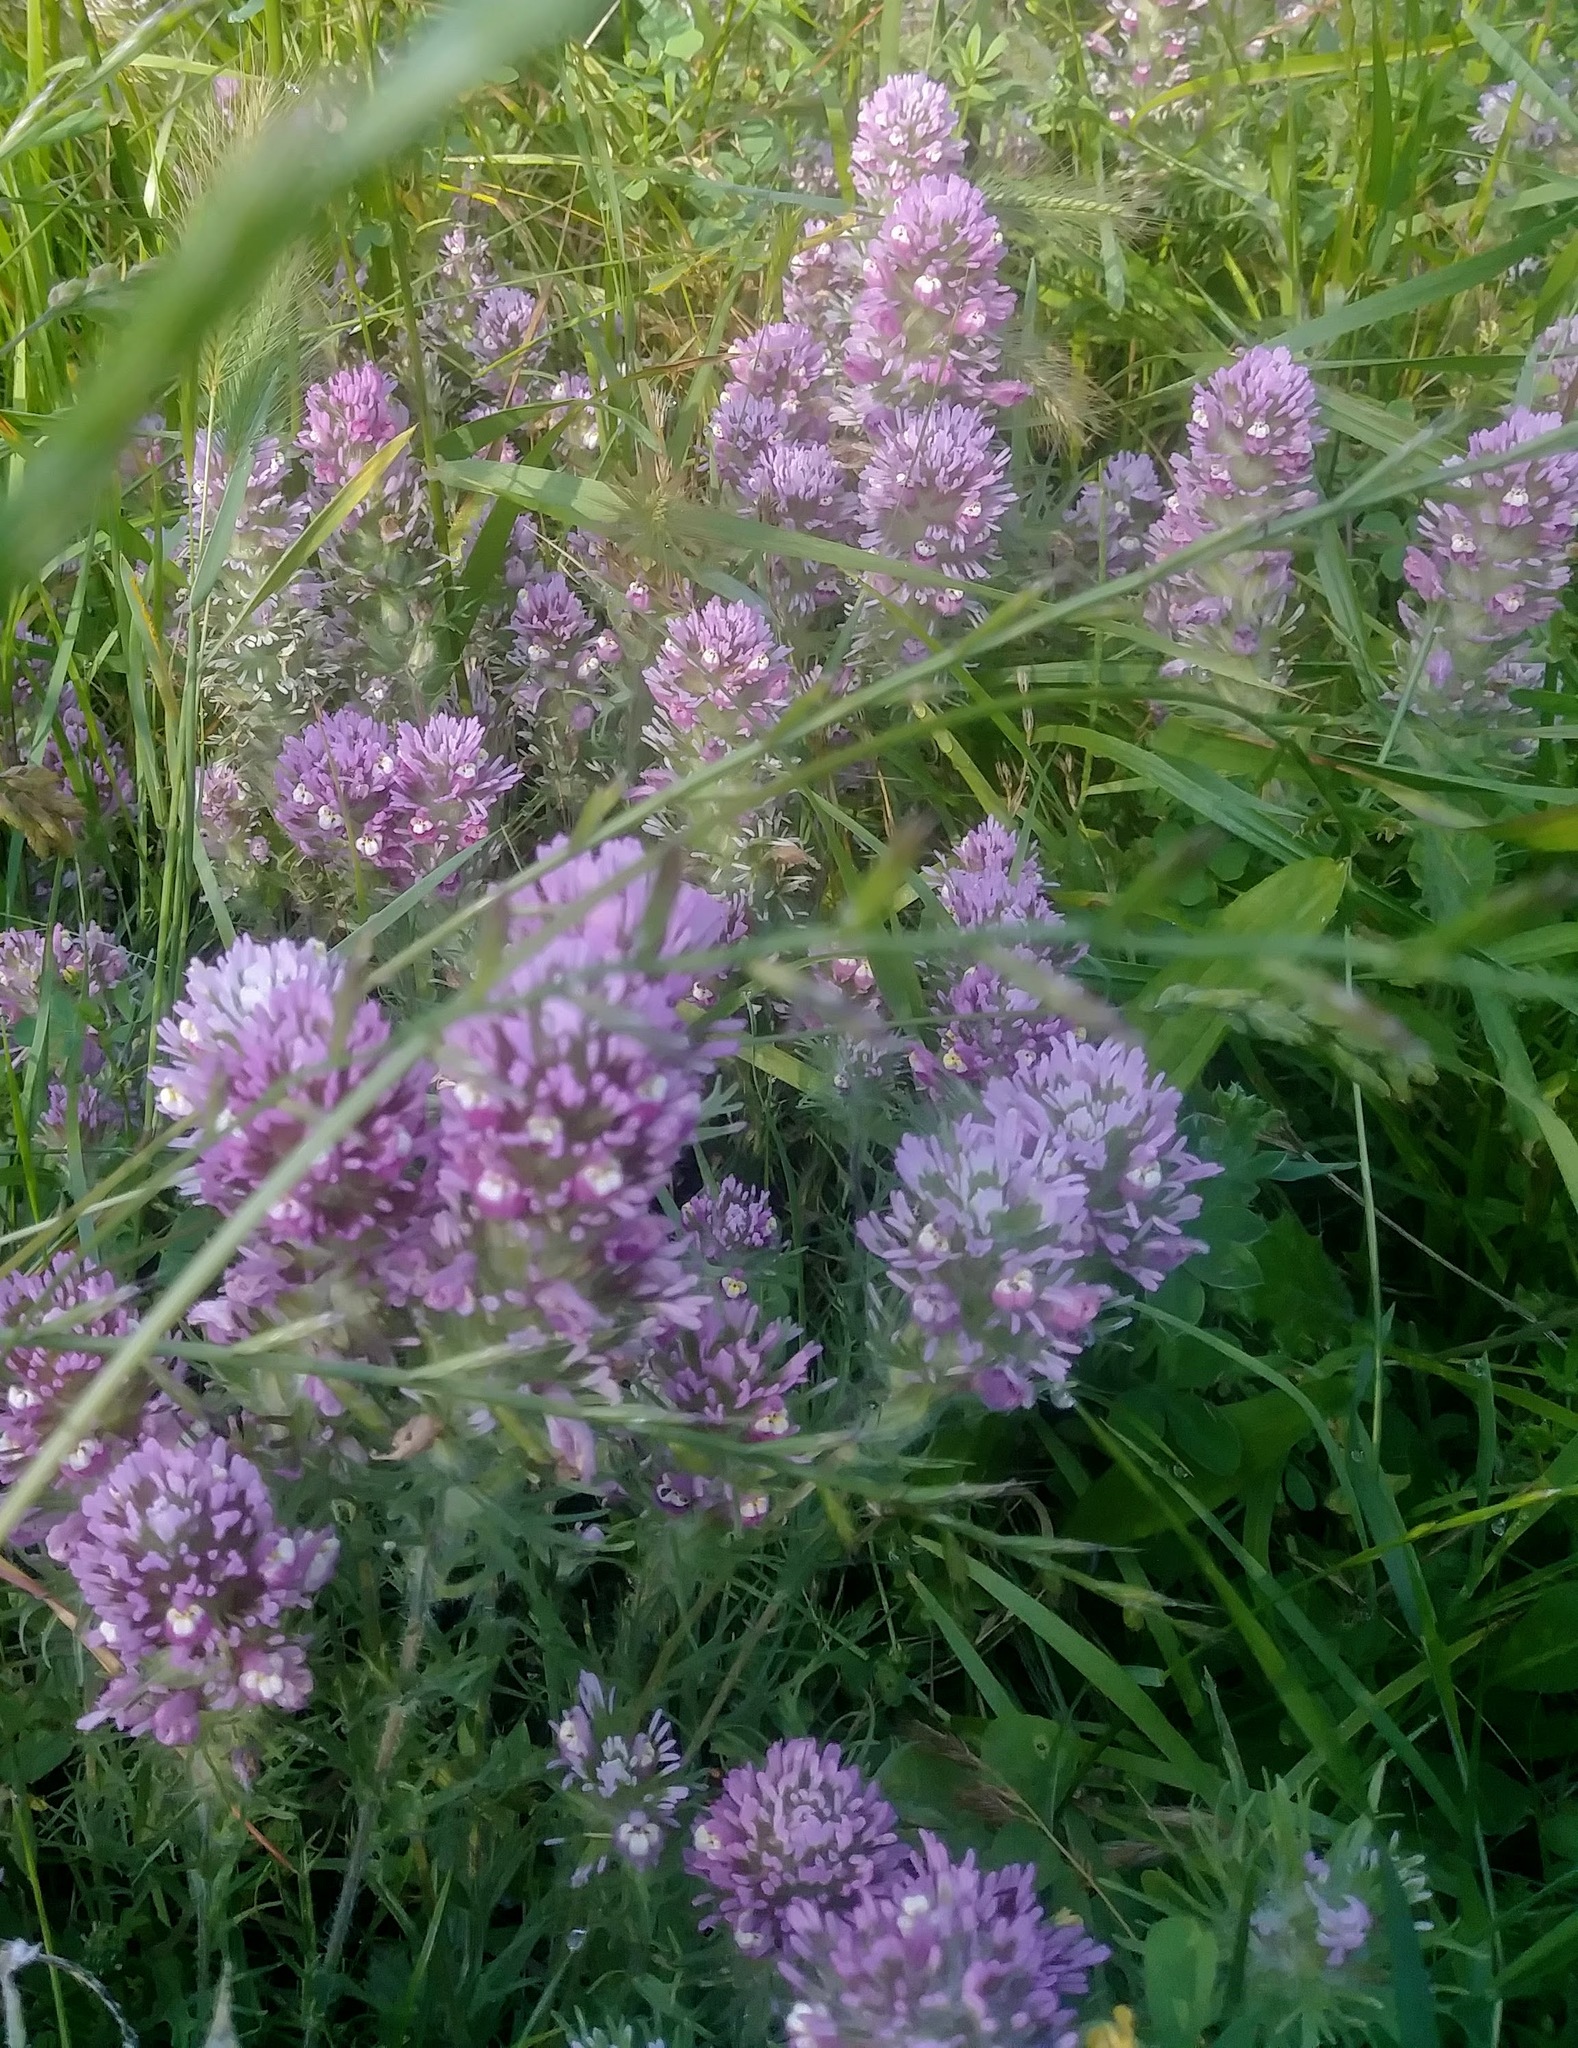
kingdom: Plantae
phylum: Tracheophyta
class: Magnoliopsida
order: Lamiales
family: Orobanchaceae
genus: Castilleja
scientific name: Castilleja exserta
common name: Purple owl-clover
